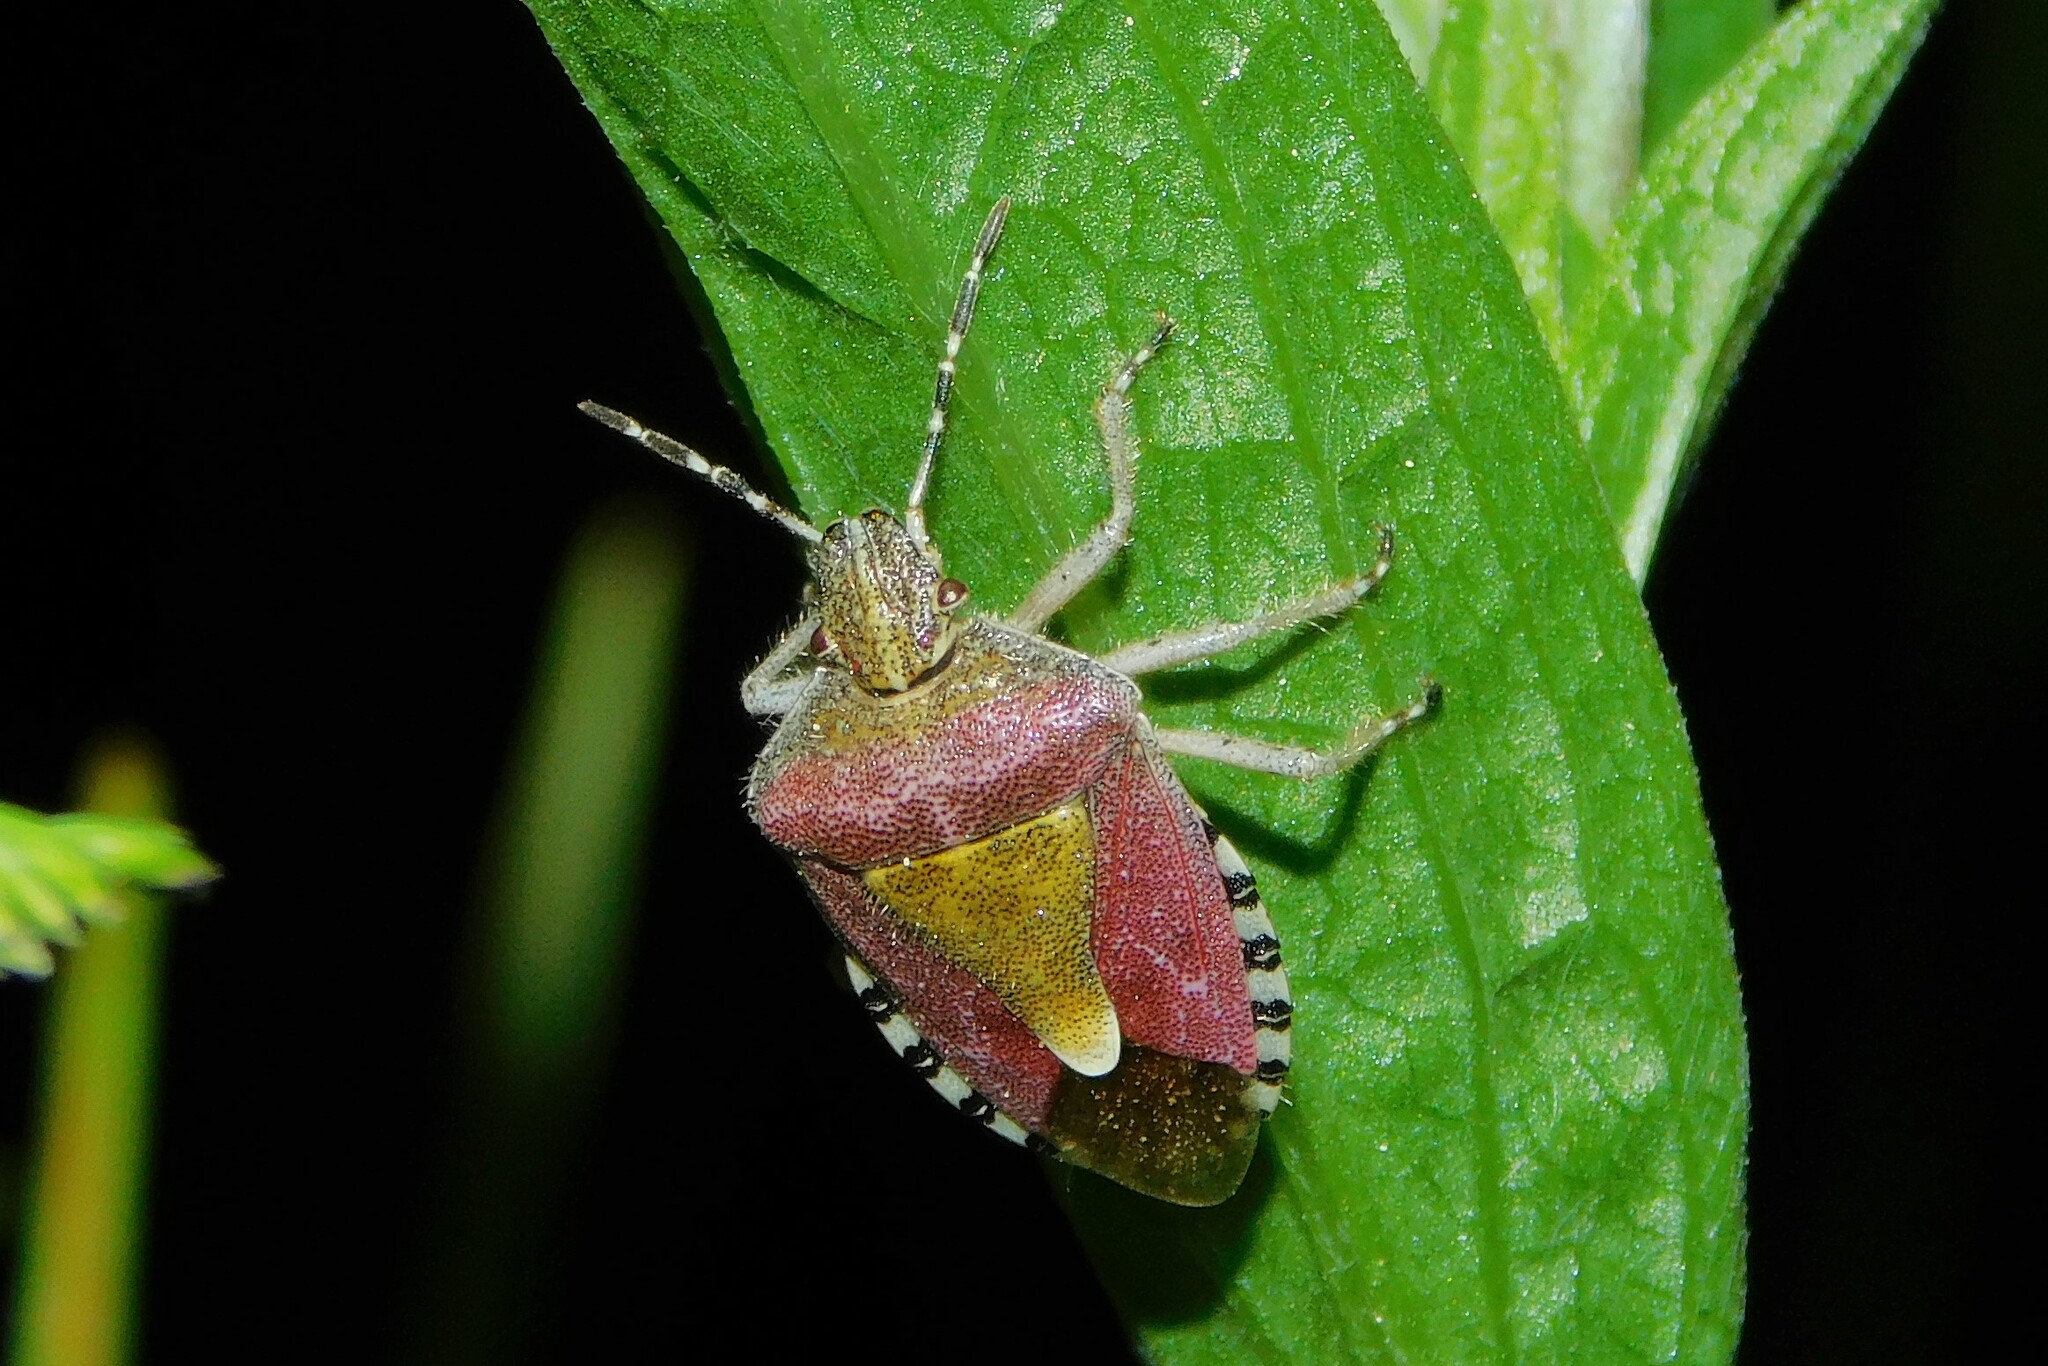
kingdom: Animalia
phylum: Arthropoda
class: Insecta
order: Hemiptera
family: Pentatomidae
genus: Dolycoris
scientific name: Dolycoris baccarum
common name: Sloe bug
